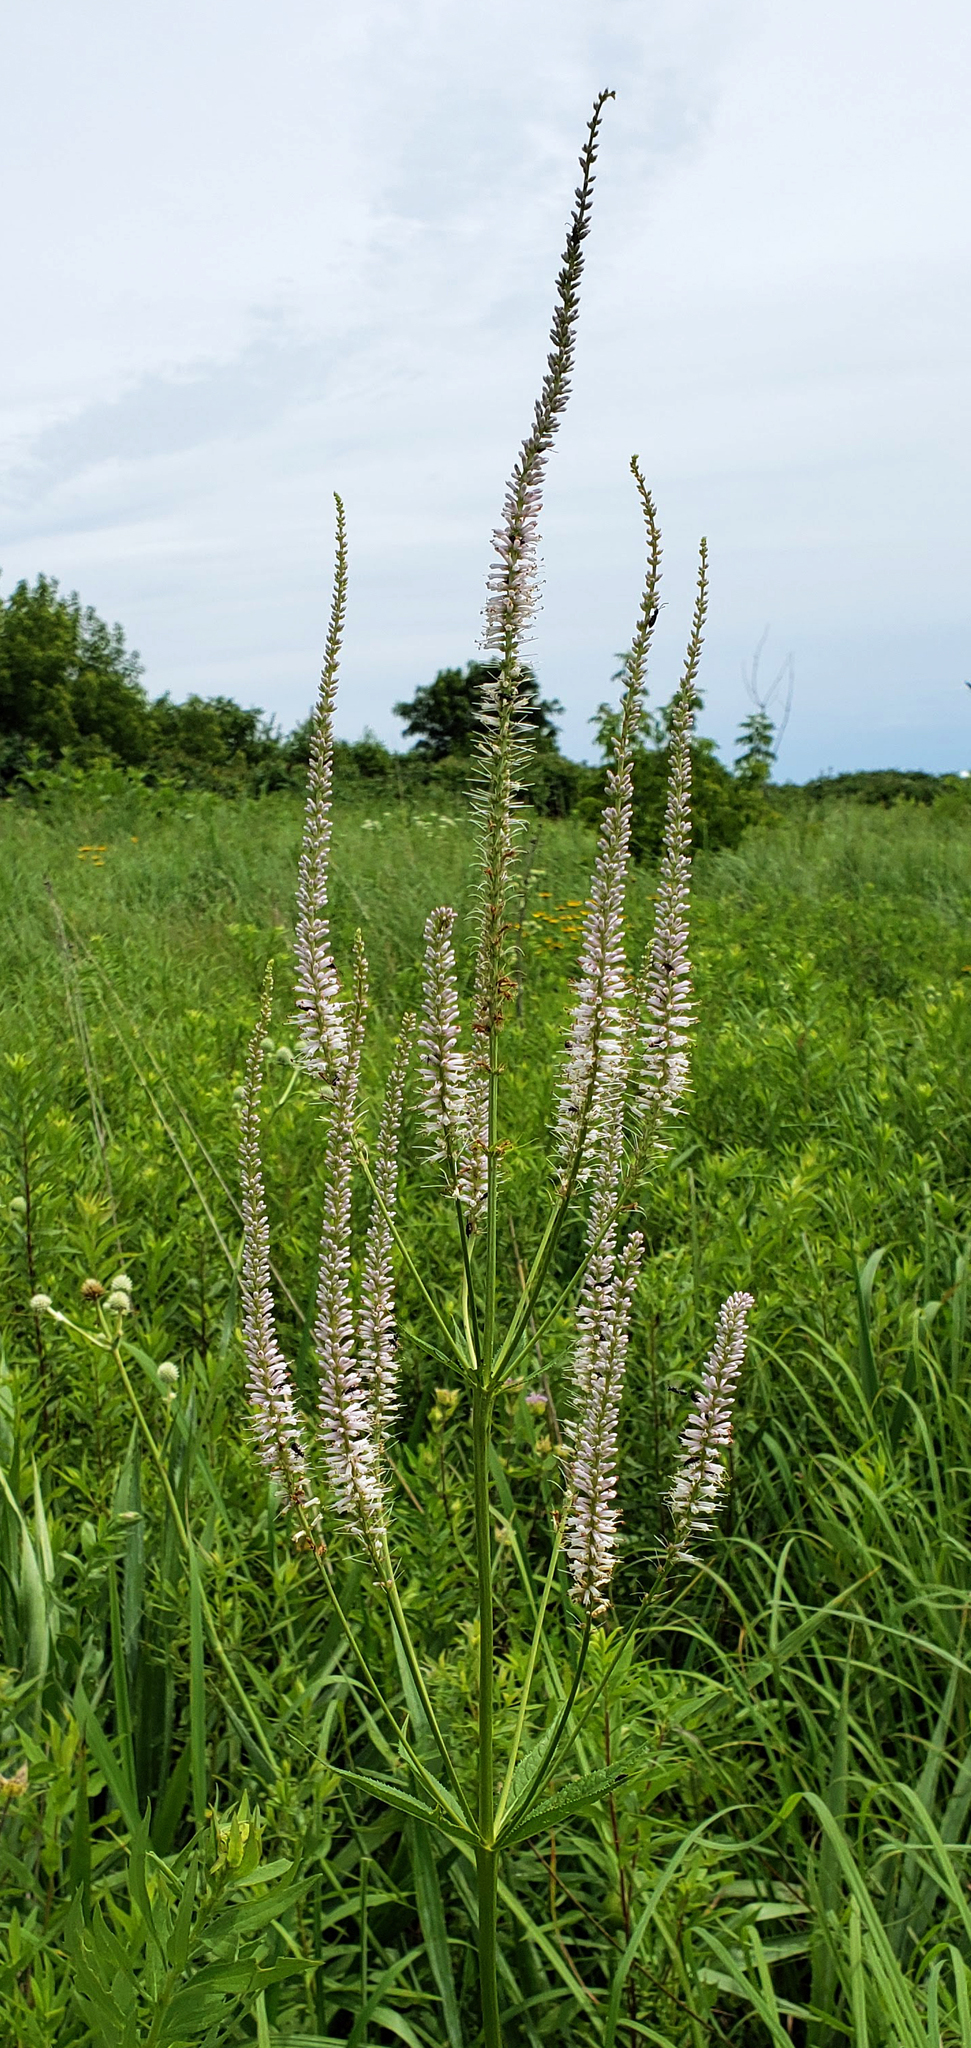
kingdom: Plantae
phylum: Tracheophyta
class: Magnoliopsida
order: Lamiales
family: Plantaginaceae
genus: Veronicastrum
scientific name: Veronicastrum virginicum
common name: Blackroot
